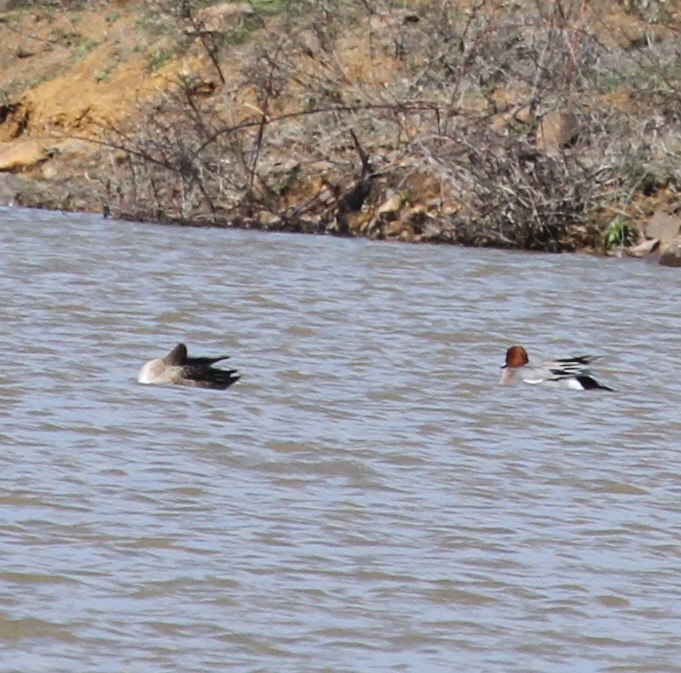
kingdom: Animalia
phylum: Chordata
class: Aves
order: Anseriformes
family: Anatidae
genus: Mareca
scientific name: Mareca penelope
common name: Eurasian wigeon
